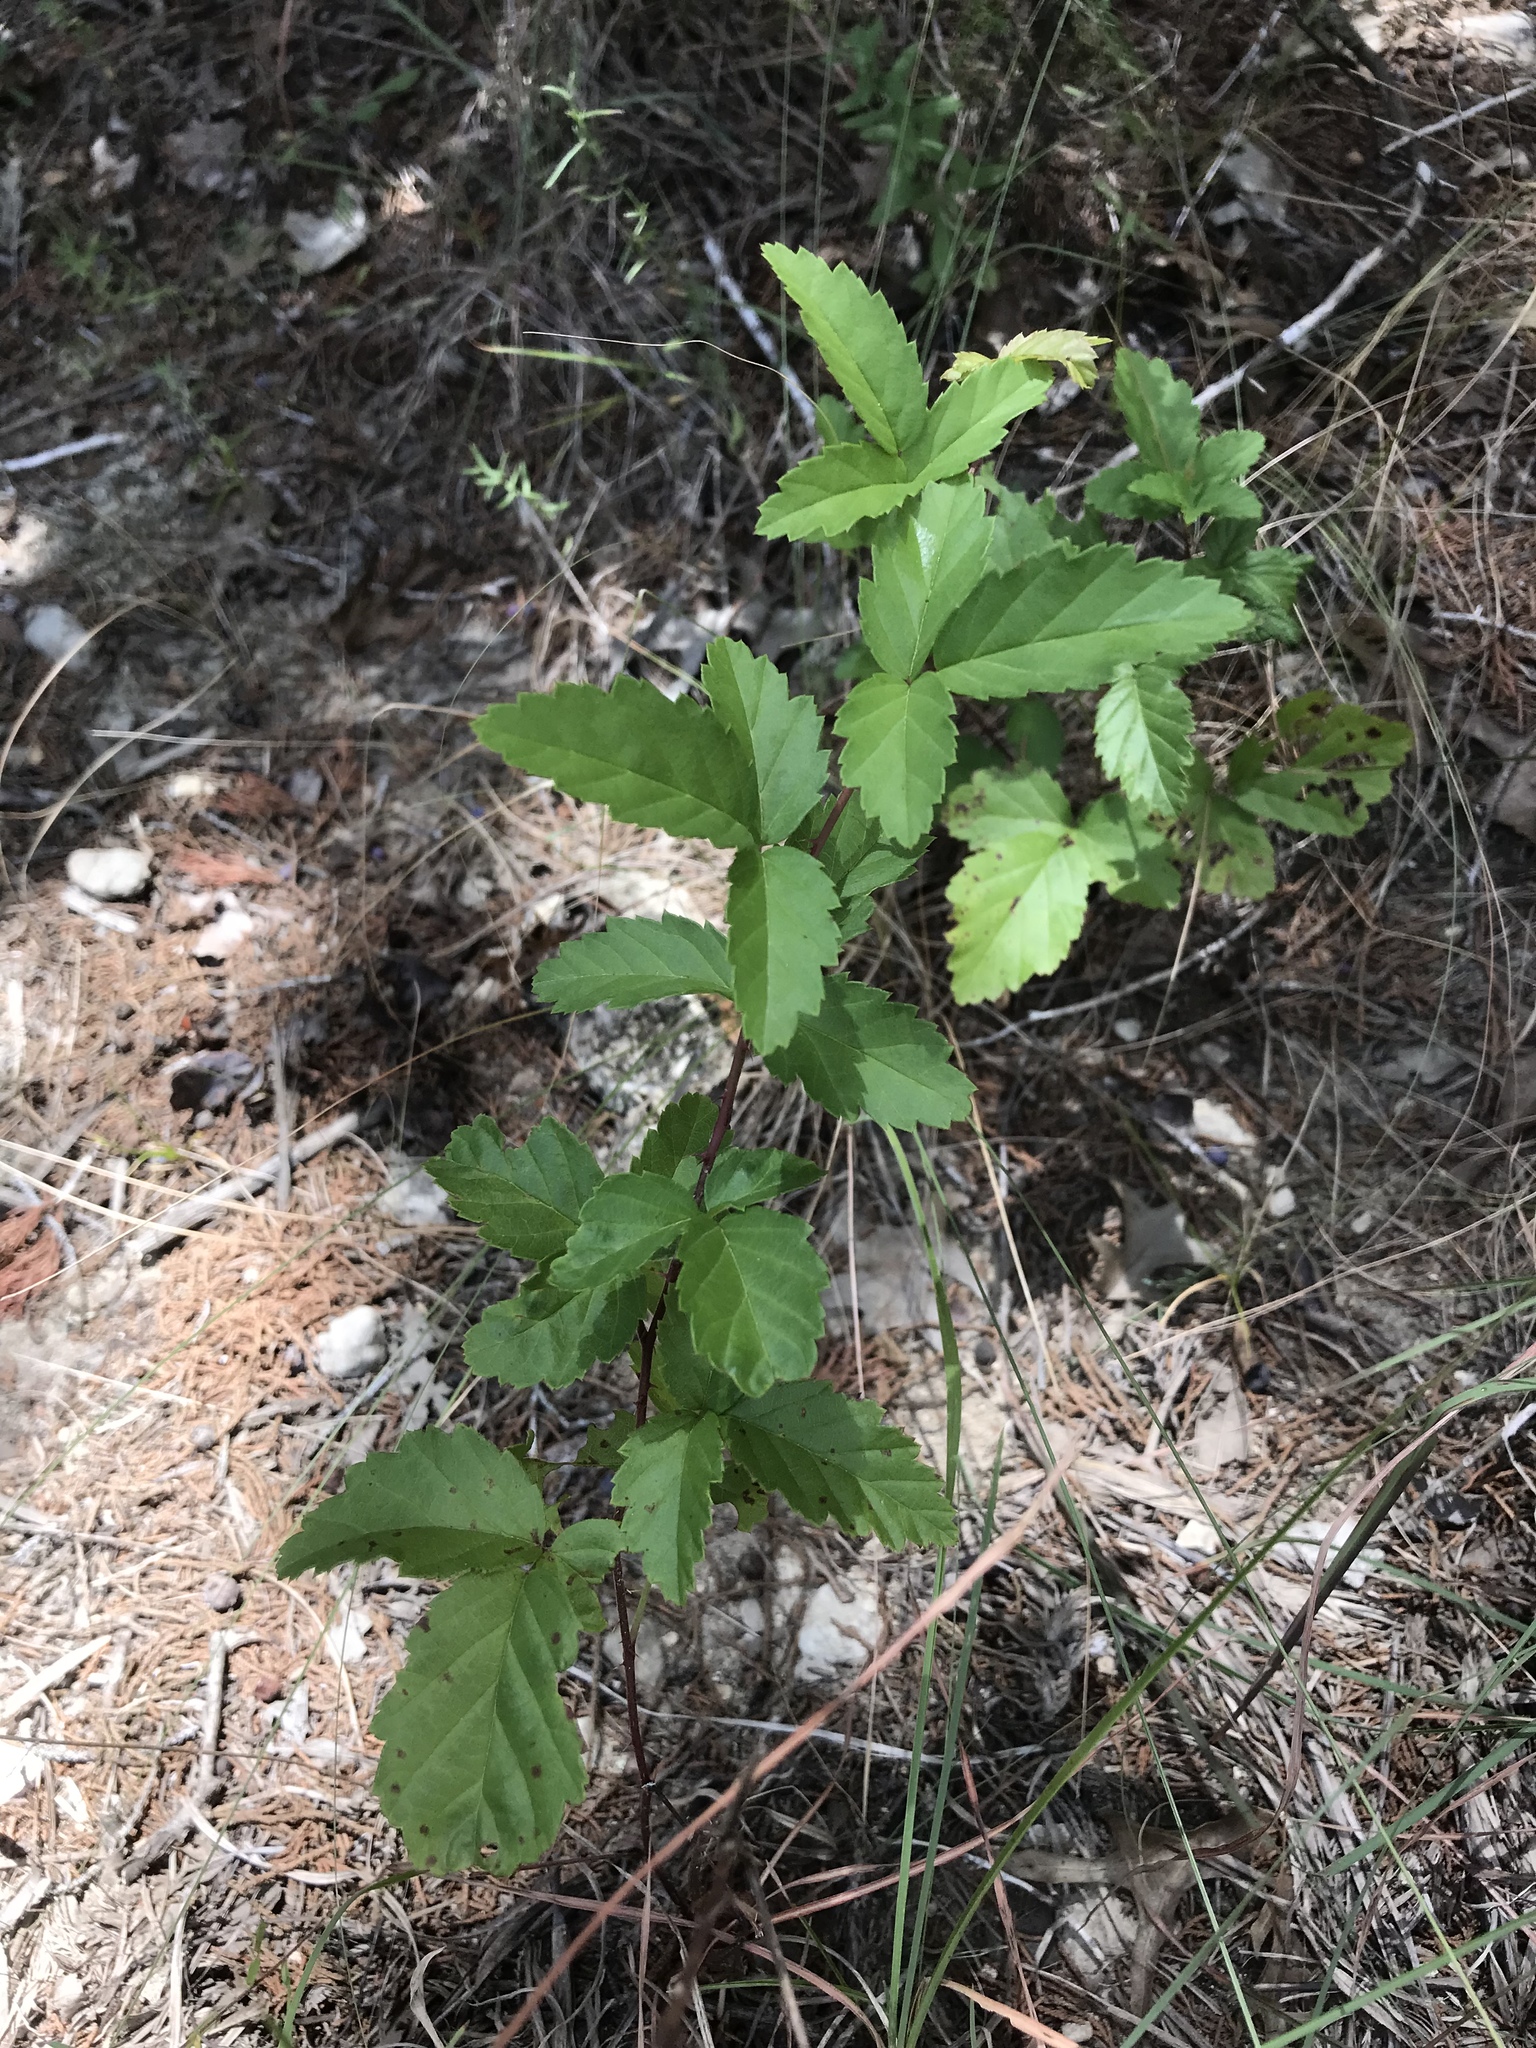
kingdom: Plantae
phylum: Tracheophyta
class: Magnoliopsida
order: Rosales
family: Rosaceae
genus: Rubus
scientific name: Rubus trivialis
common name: Southern dewberry
